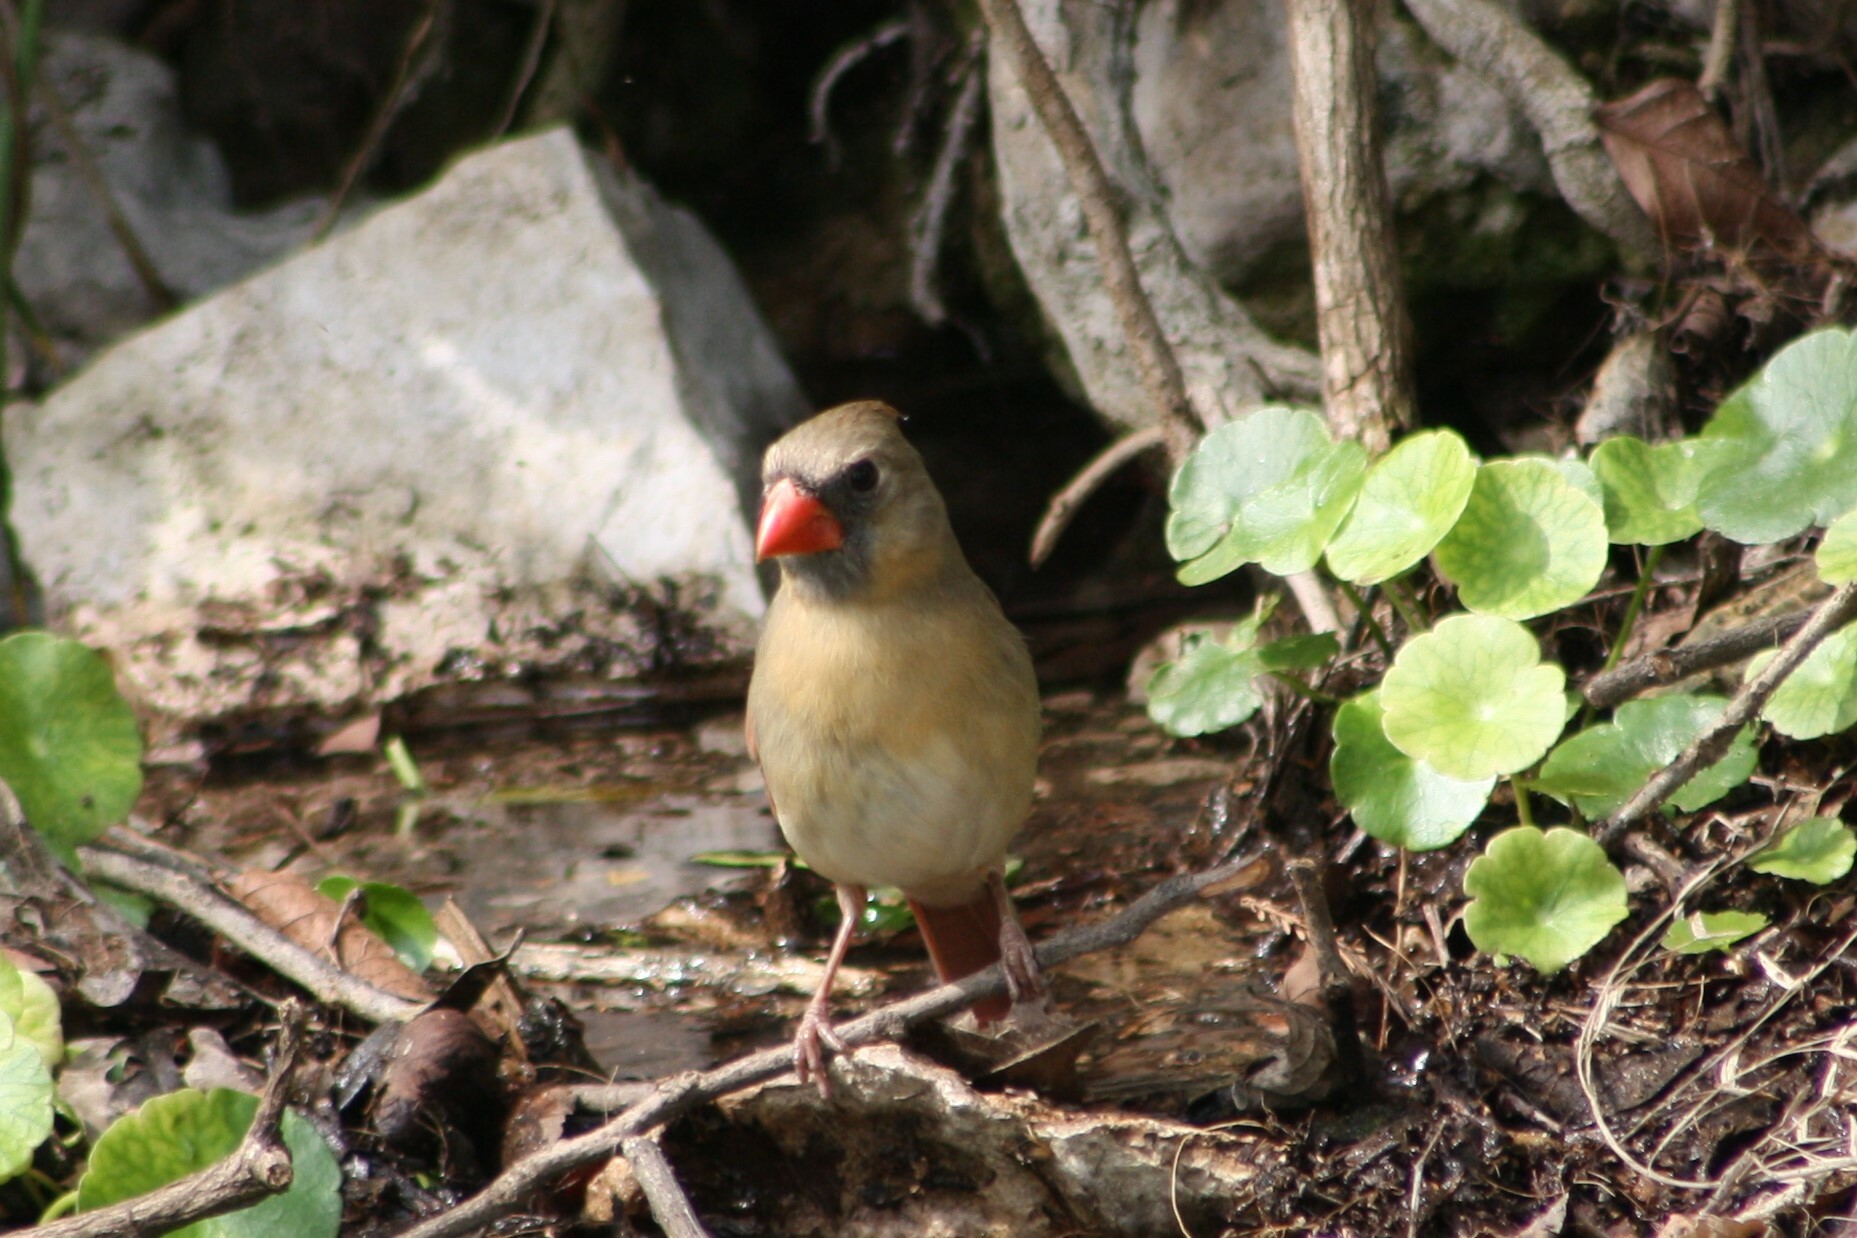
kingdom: Animalia
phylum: Chordata
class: Aves
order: Passeriformes
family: Cardinalidae
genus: Cardinalis
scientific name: Cardinalis cardinalis
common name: Northern cardinal
